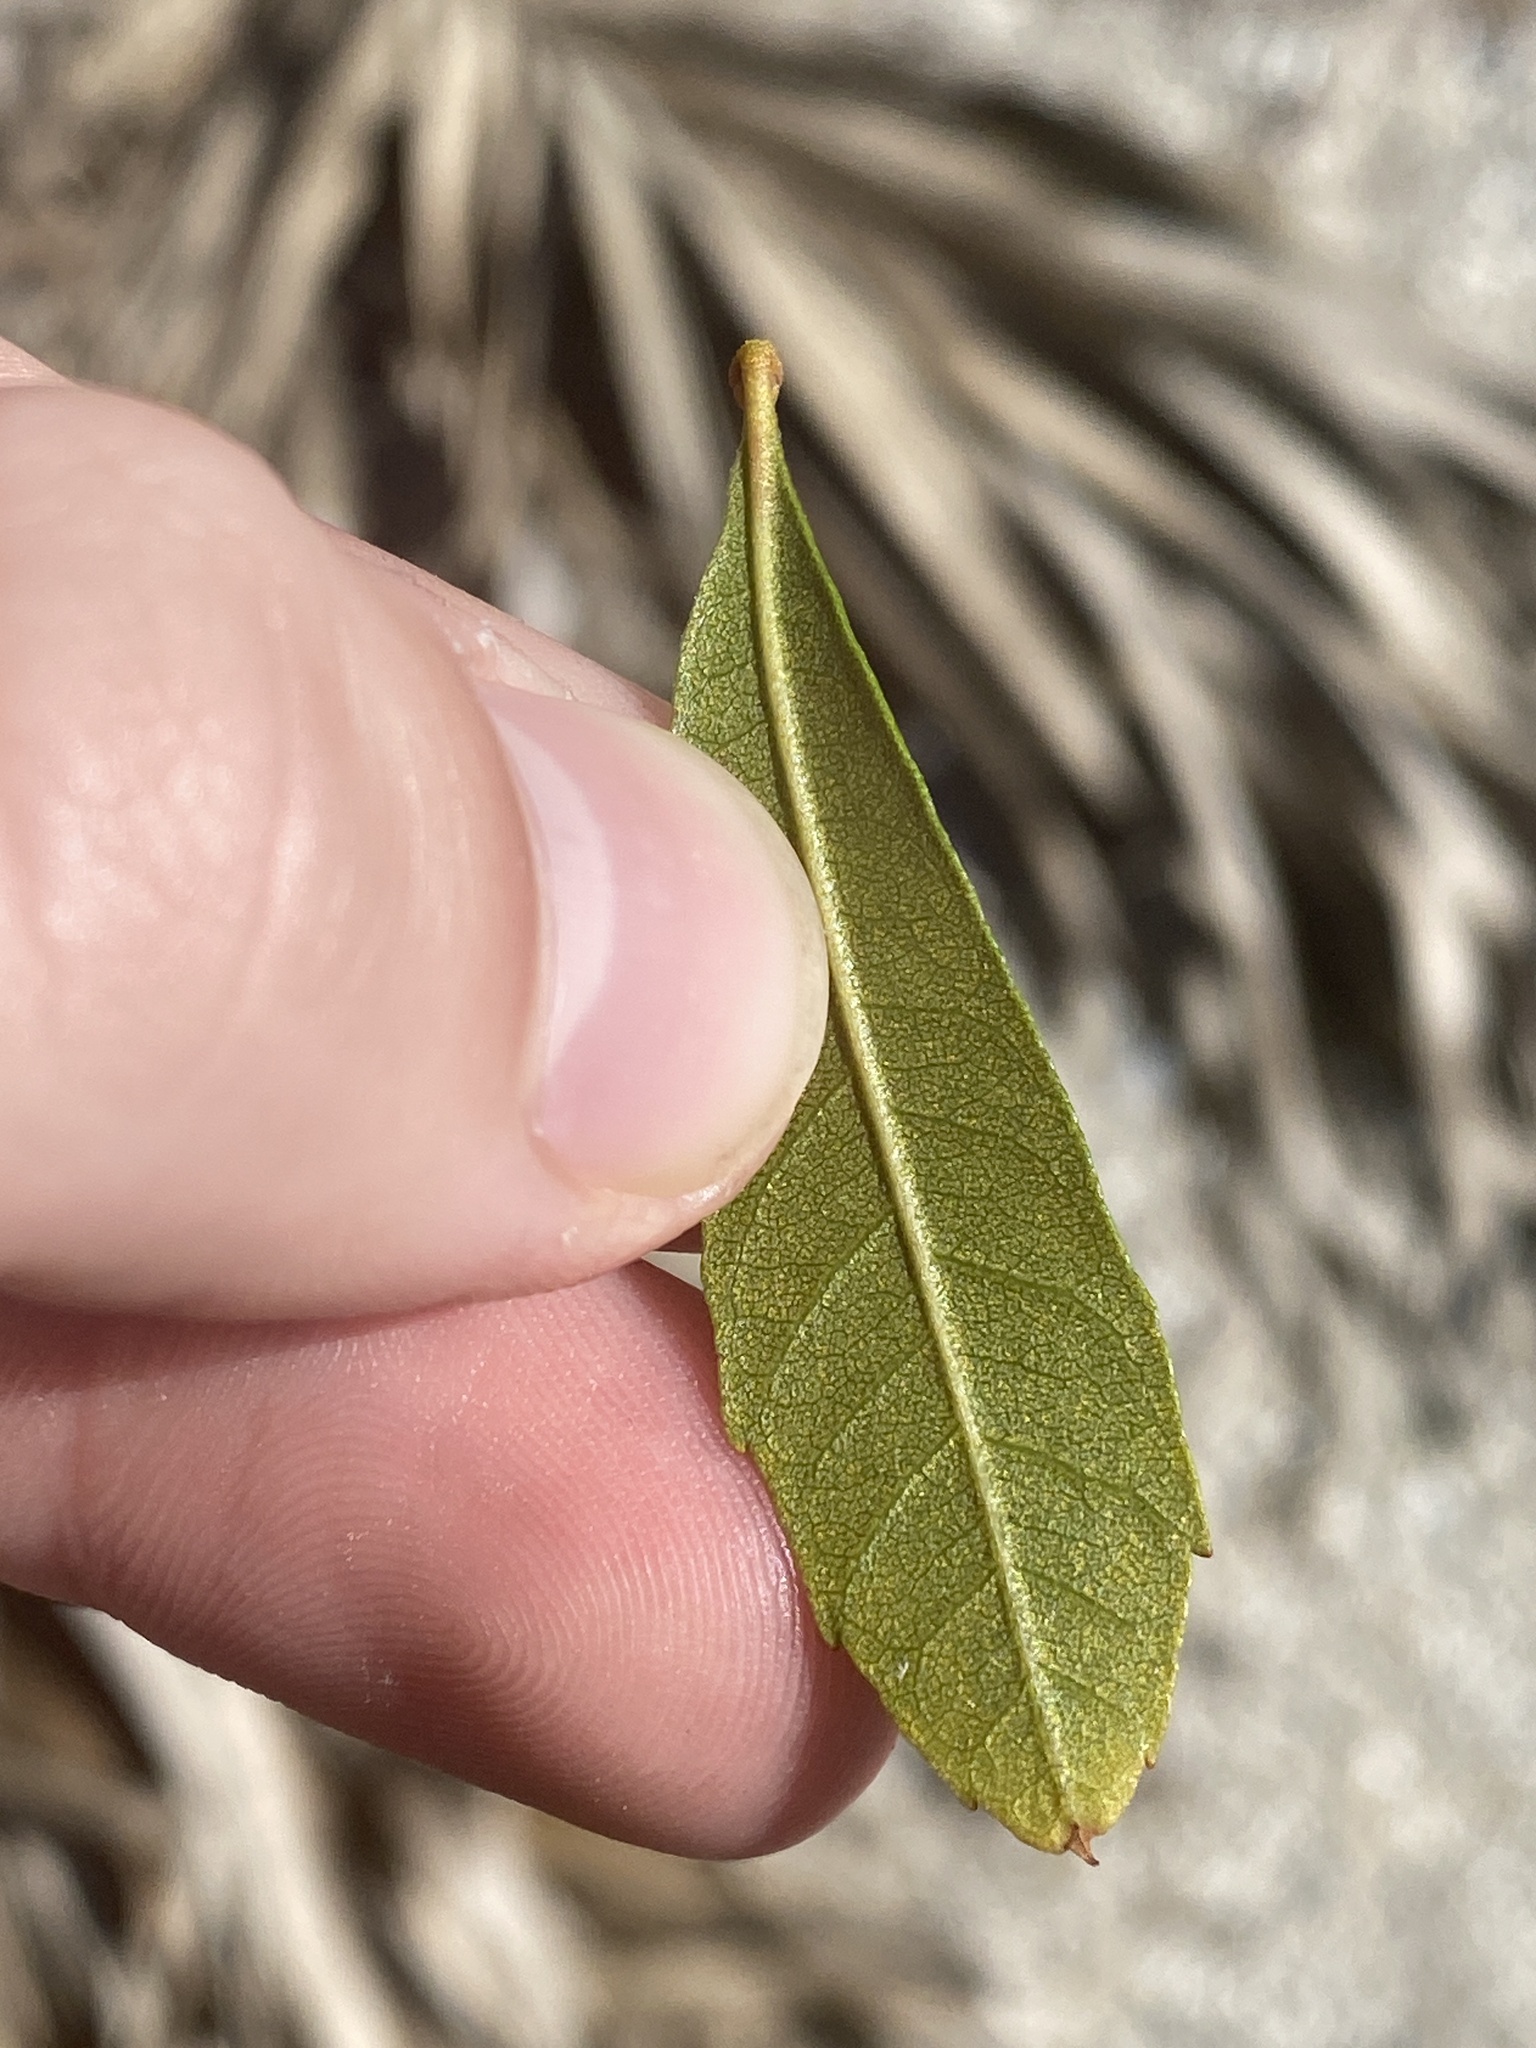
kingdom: Plantae
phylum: Tracheophyta
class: Magnoliopsida
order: Fagales
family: Myricaceae
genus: Morella
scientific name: Morella cerifera
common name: Wax myrtle
